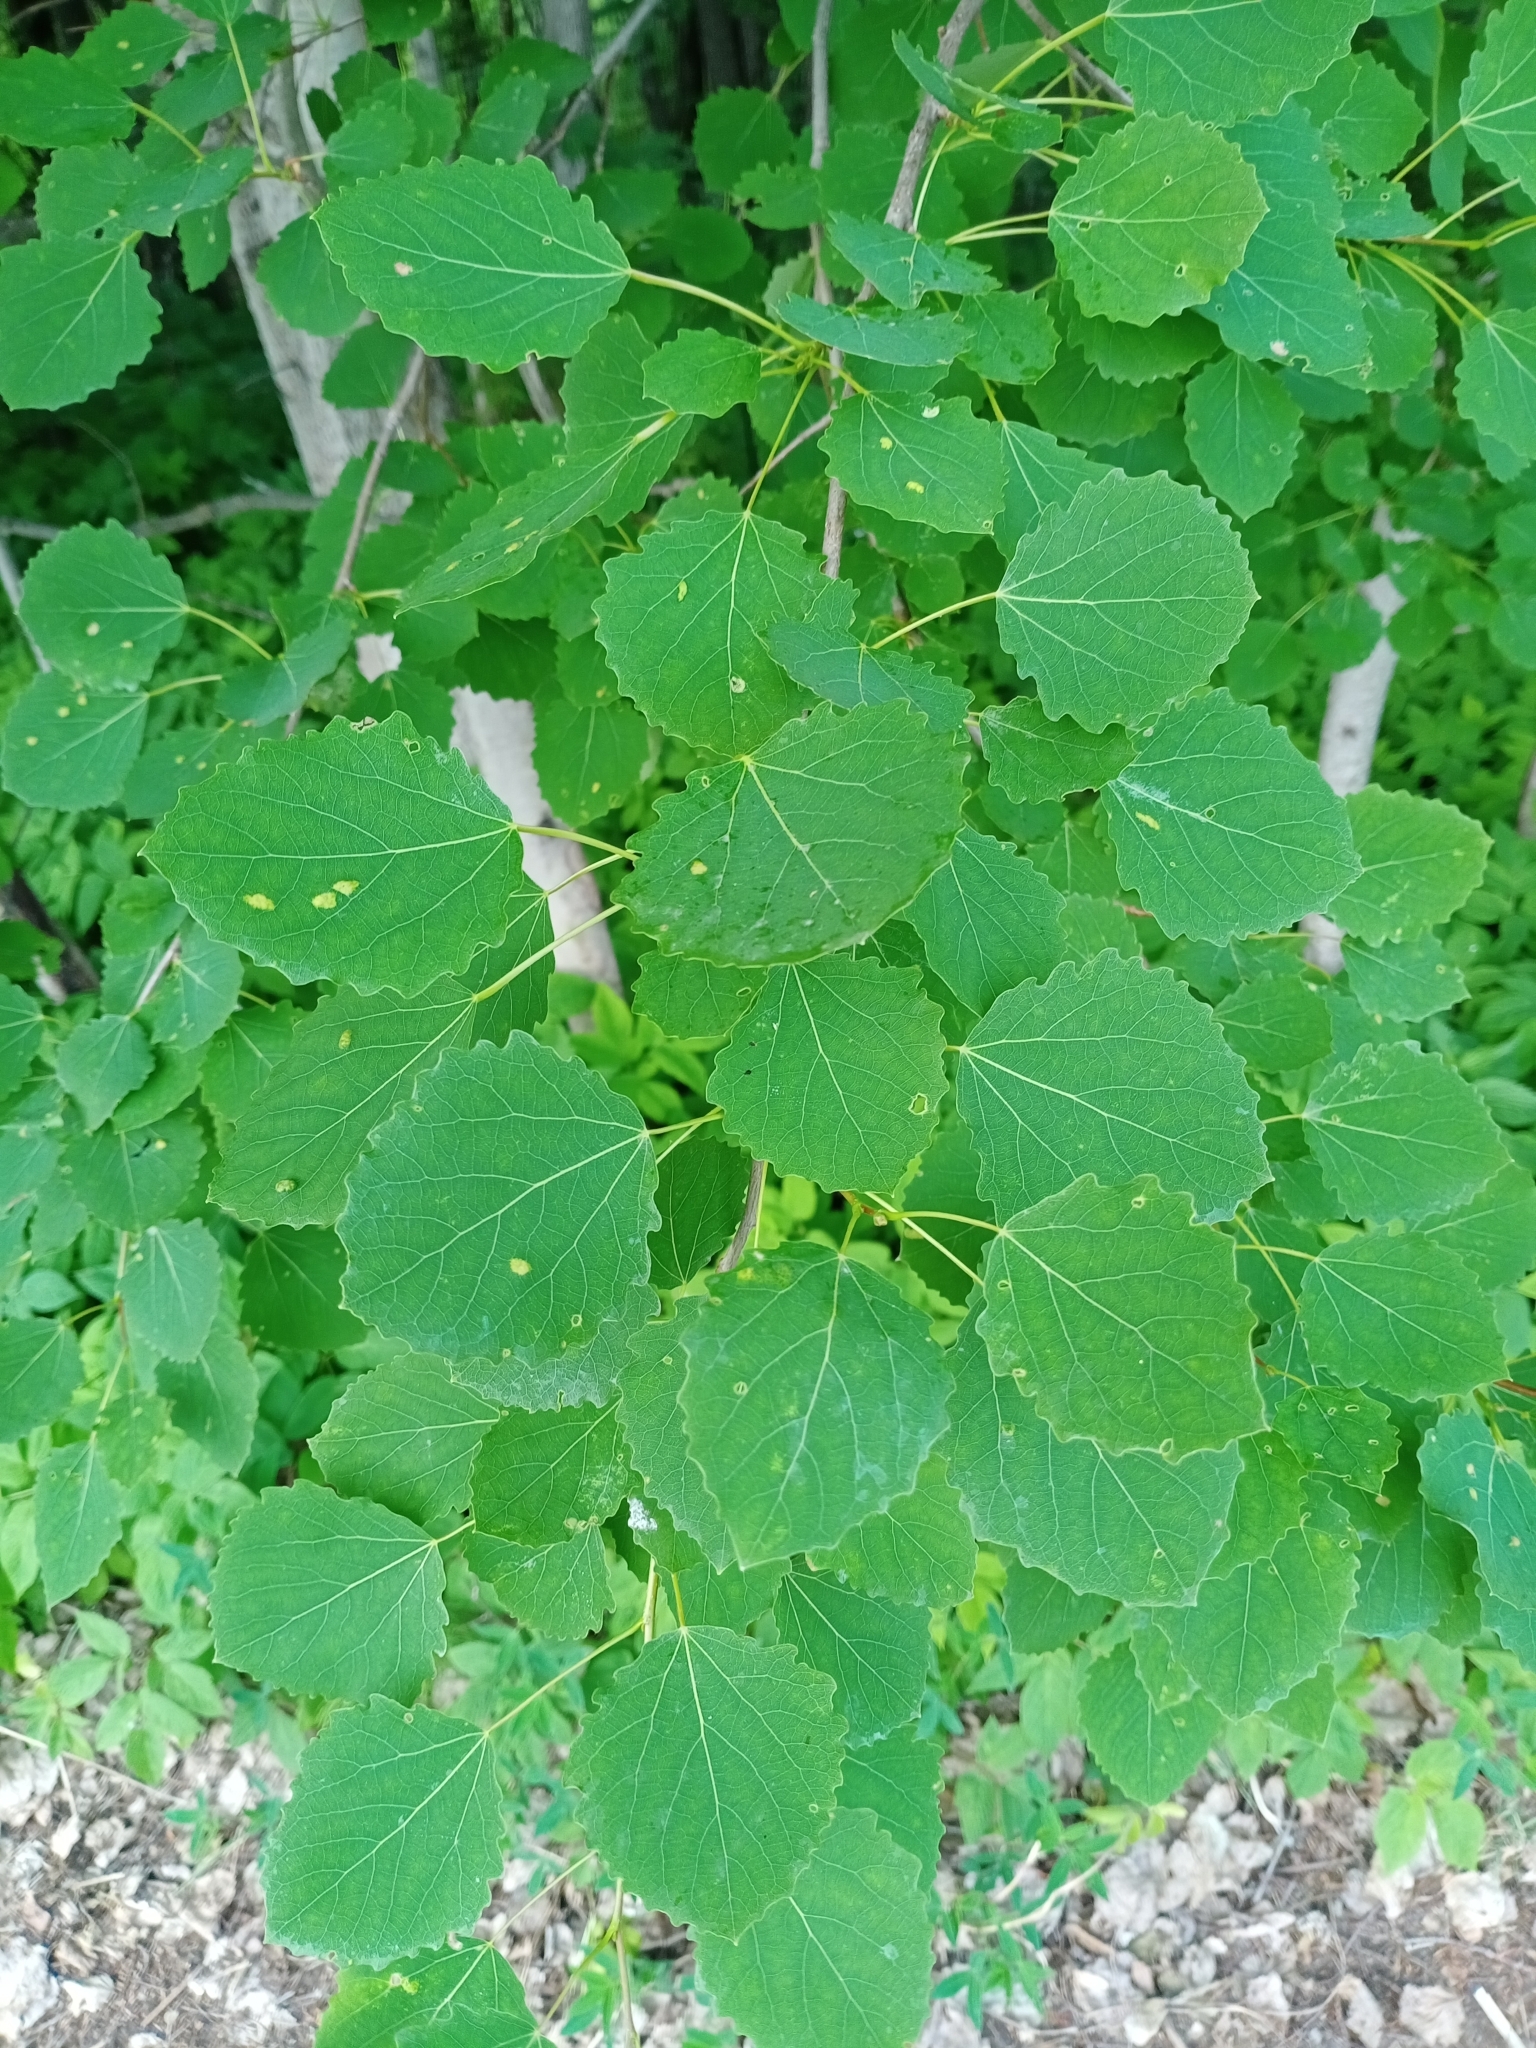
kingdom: Plantae
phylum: Tracheophyta
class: Magnoliopsida
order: Malpighiales
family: Salicaceae
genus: Populus
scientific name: Populus tremula
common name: European aspen
